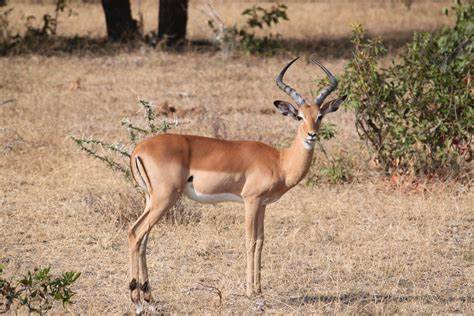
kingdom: Animalia
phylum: Chordata
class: Mammalia
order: Artiodactyla
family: Bovidae
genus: Aepyceros
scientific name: Aepyceros melampus
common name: Impala
